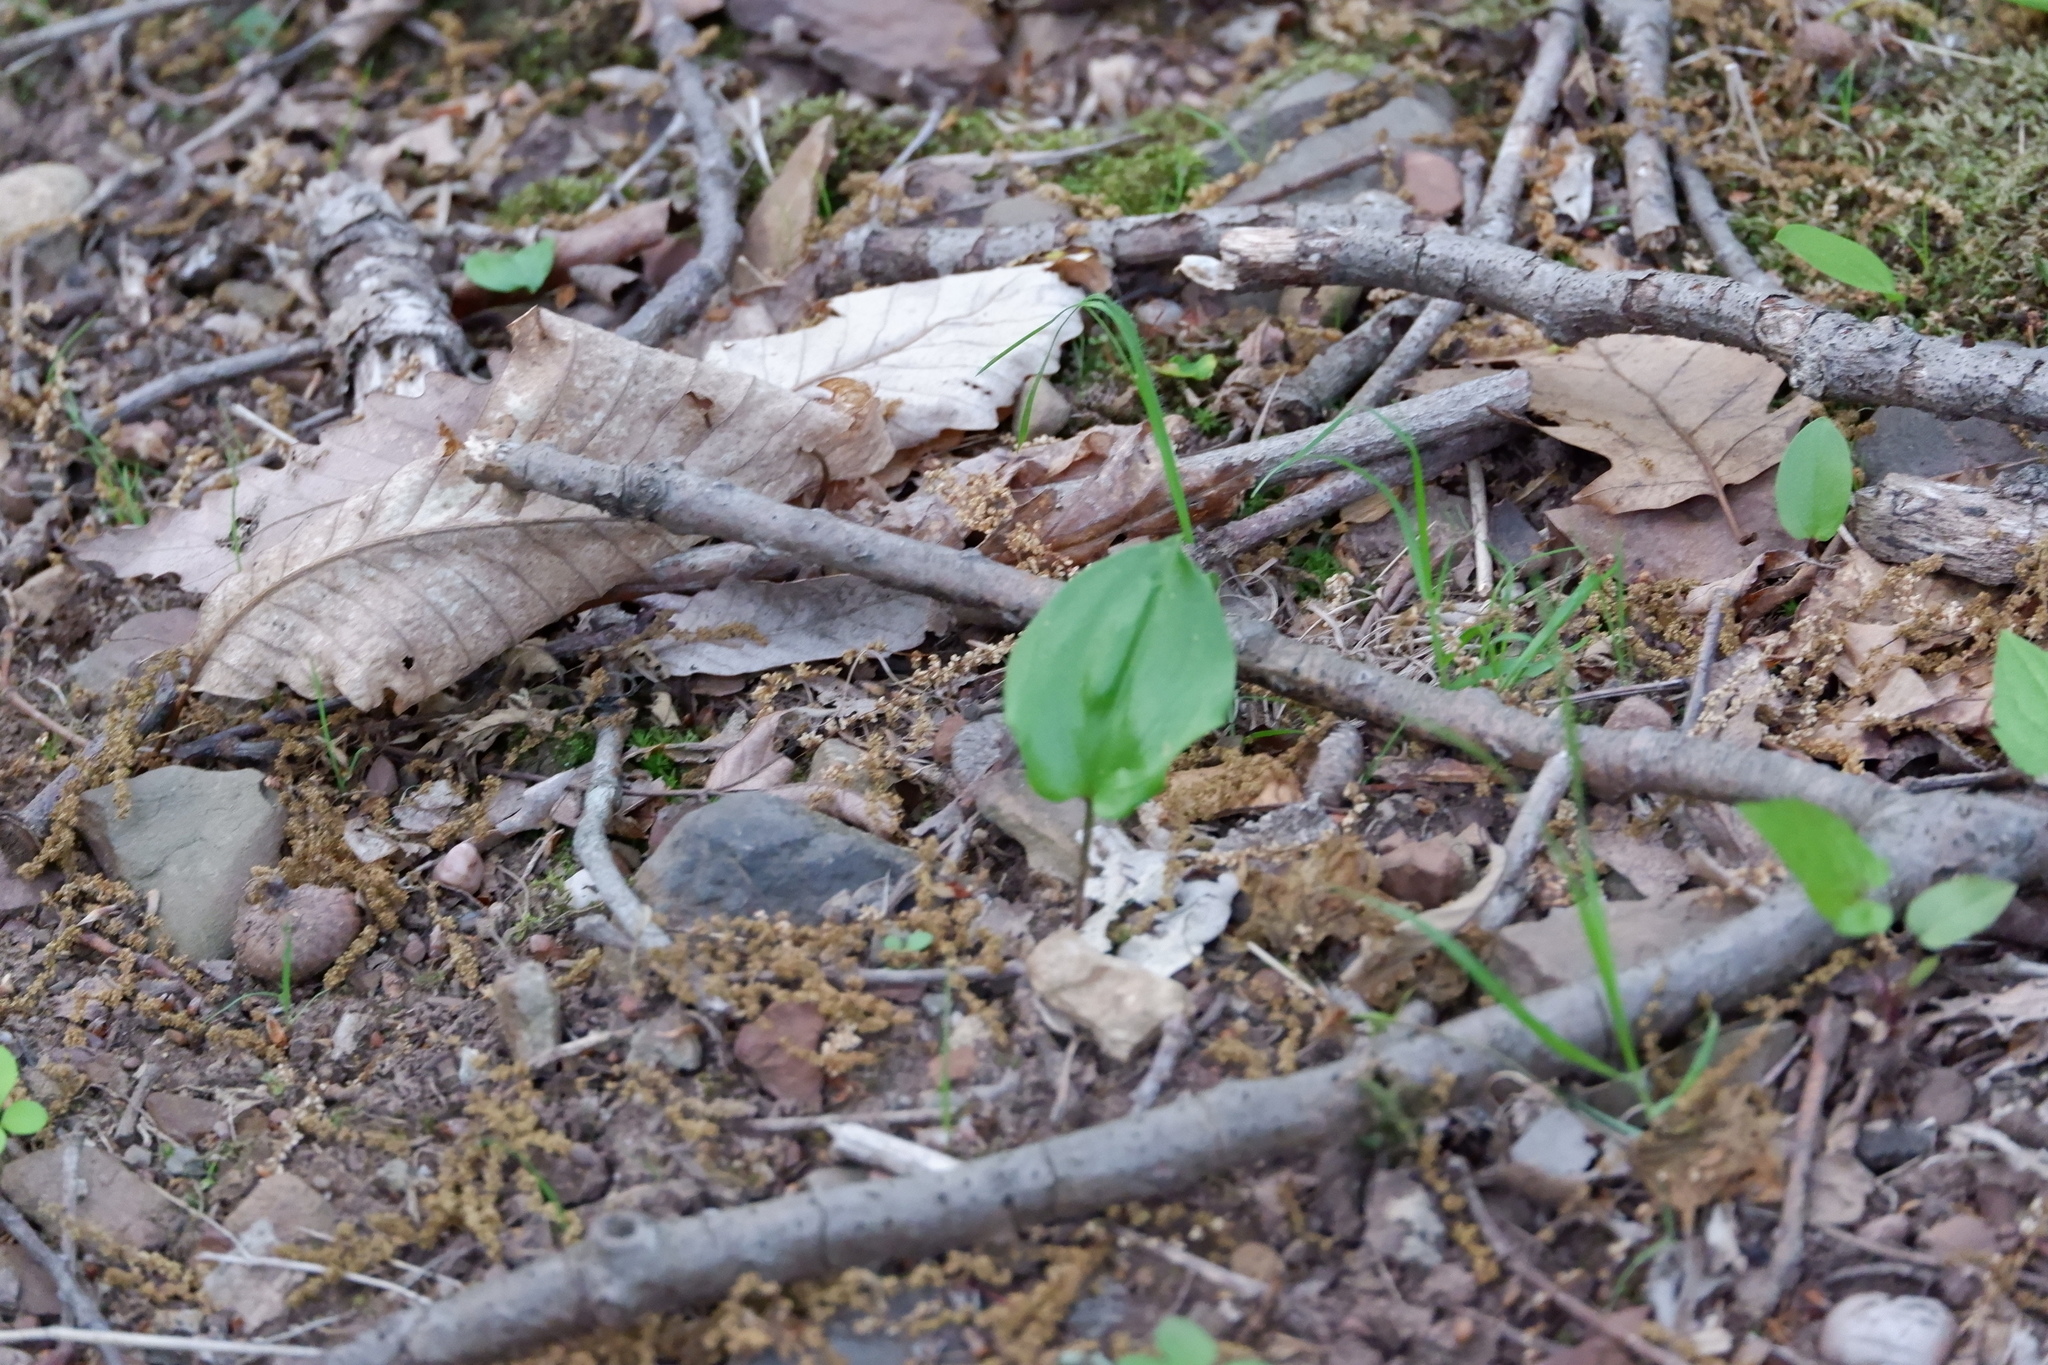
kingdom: Plantae
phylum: Tracheophyta
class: Liliopsida
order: Asparagales
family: Asparagaceae
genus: Maianthemum
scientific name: Maianthemum canadense
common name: False lily-of-the-valley
